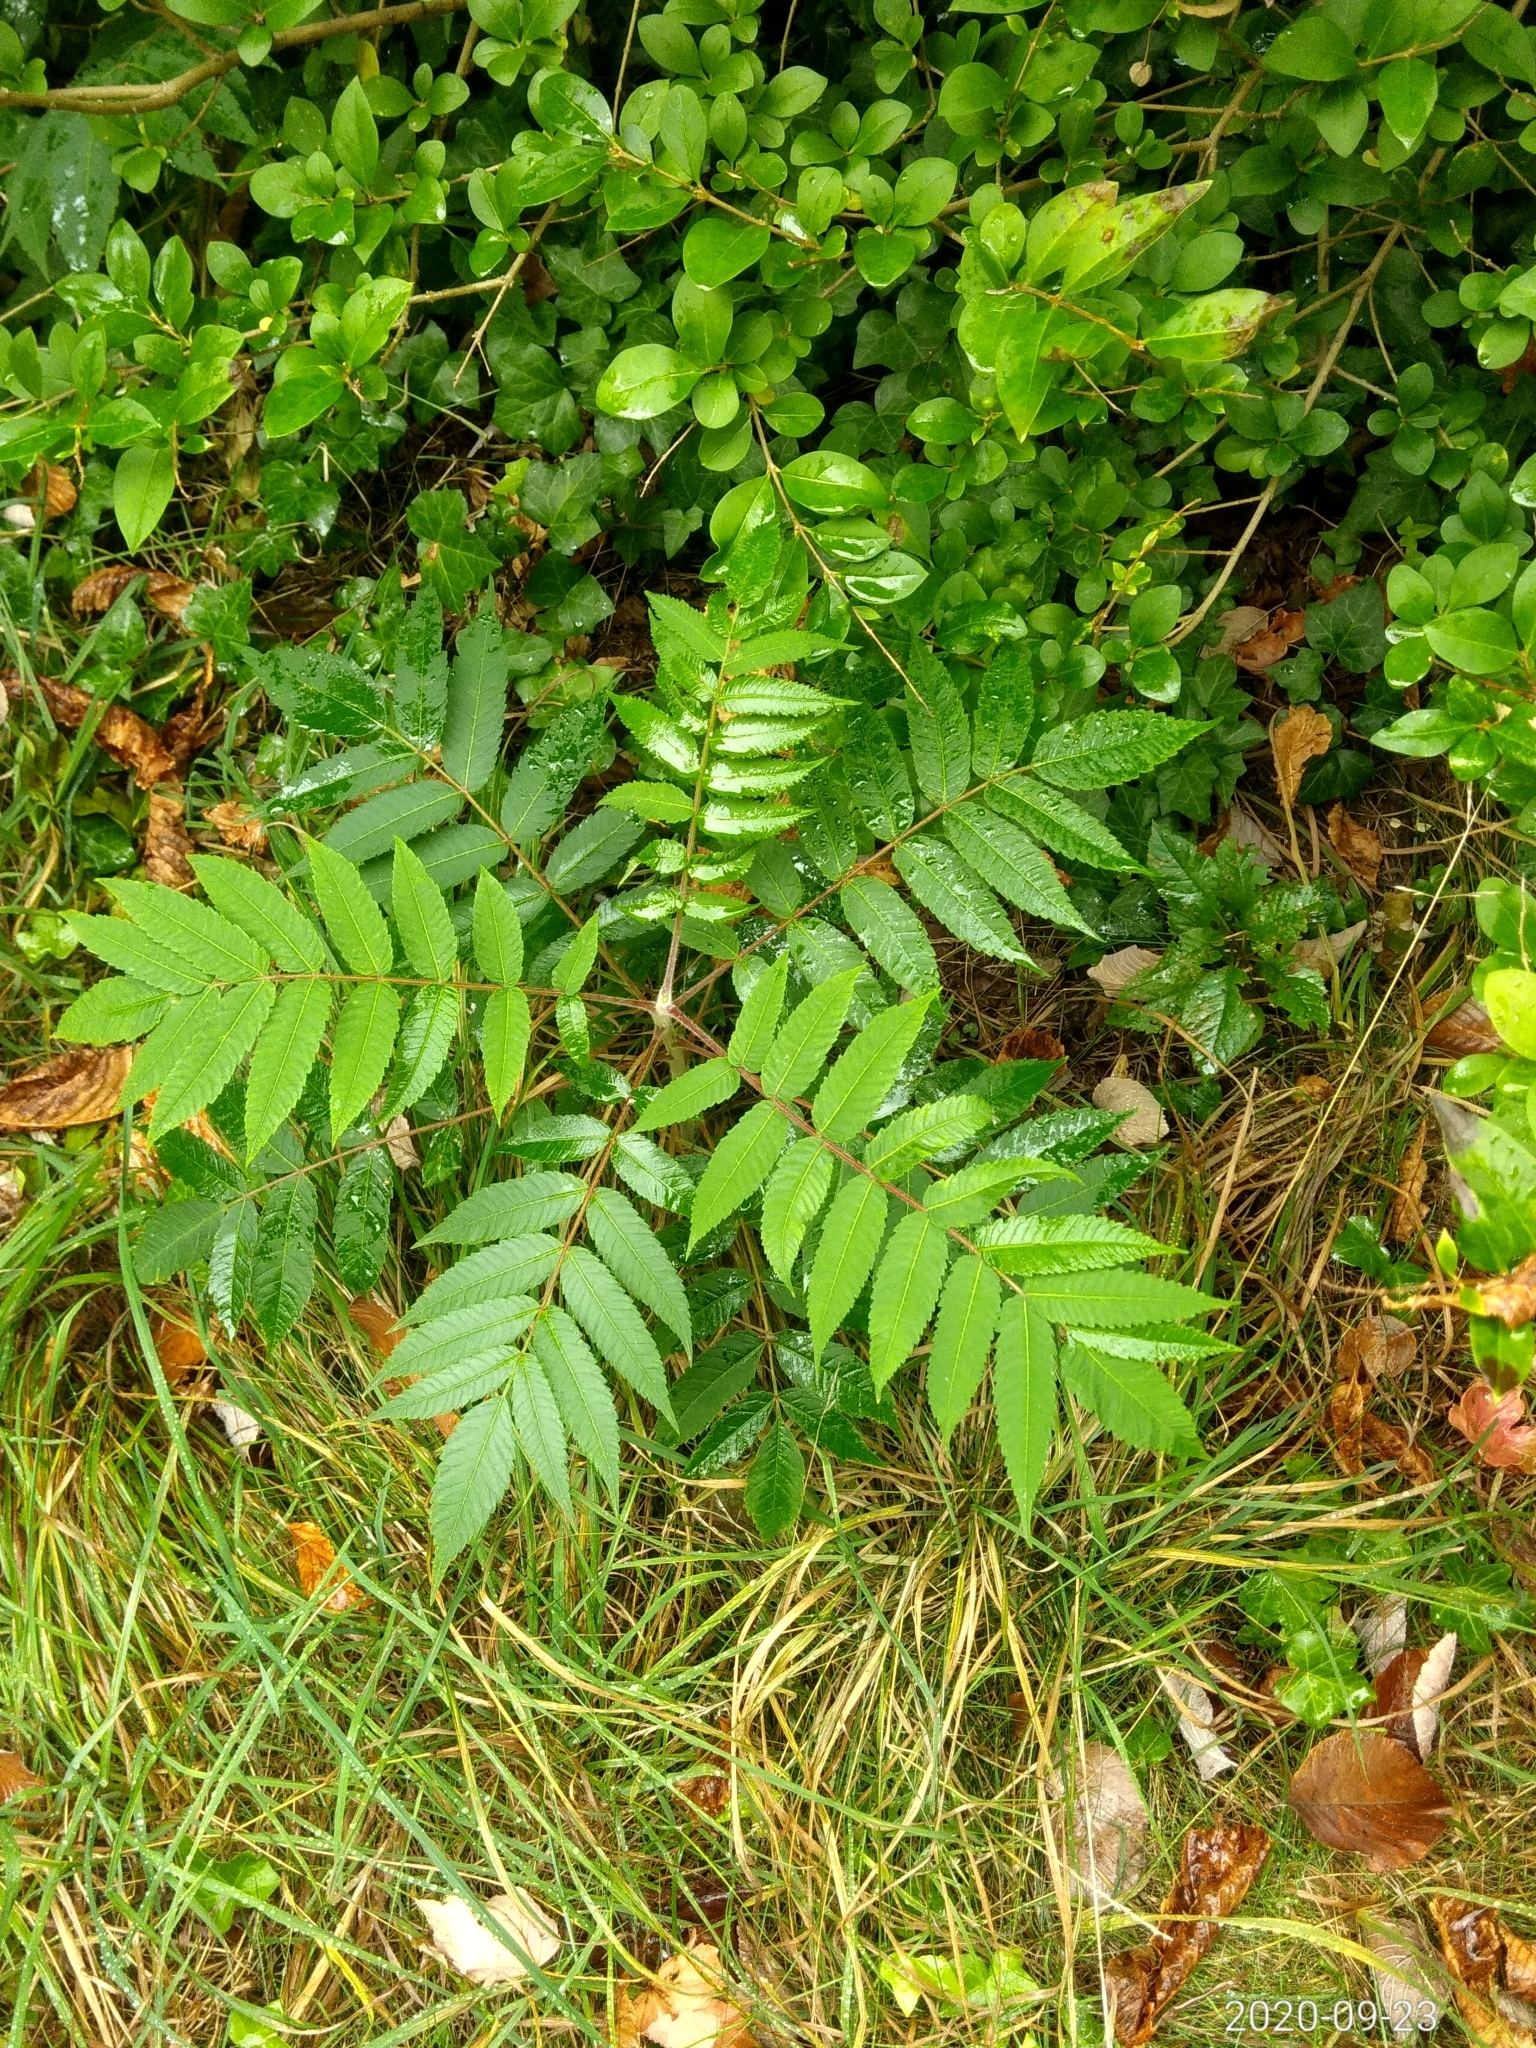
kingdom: Plantae
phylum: Tracheophyta
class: Magnoliopsida
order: Sapindales
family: Anacardiaceae
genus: Rhus
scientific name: Rhus typhina
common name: Staghorn sumac
